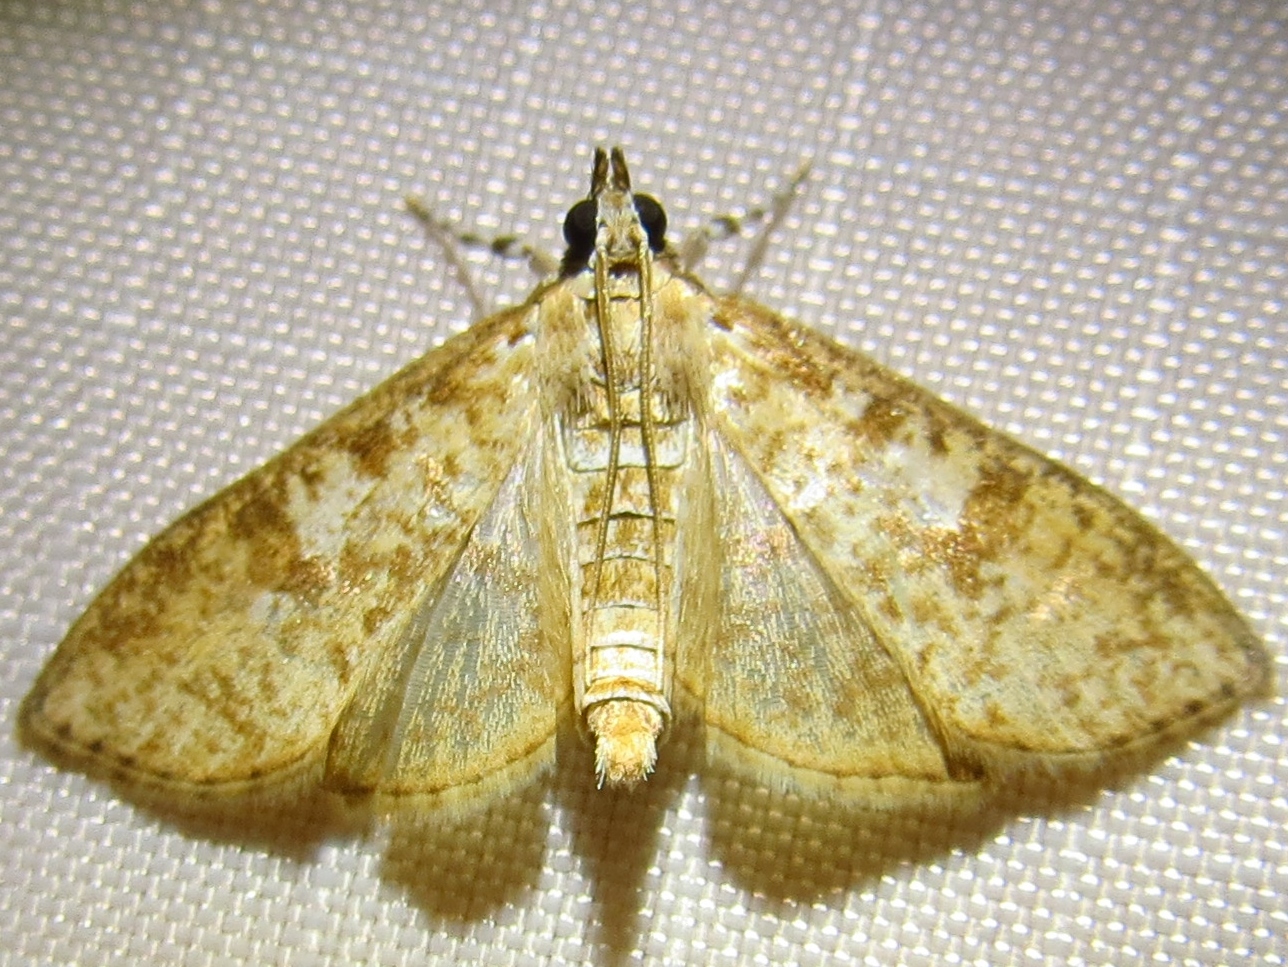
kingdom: Animalia
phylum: Arthropoda
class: Insecta
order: Lepidoptera
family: Crambidae
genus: Palpita
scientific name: Palpita freemanalis
